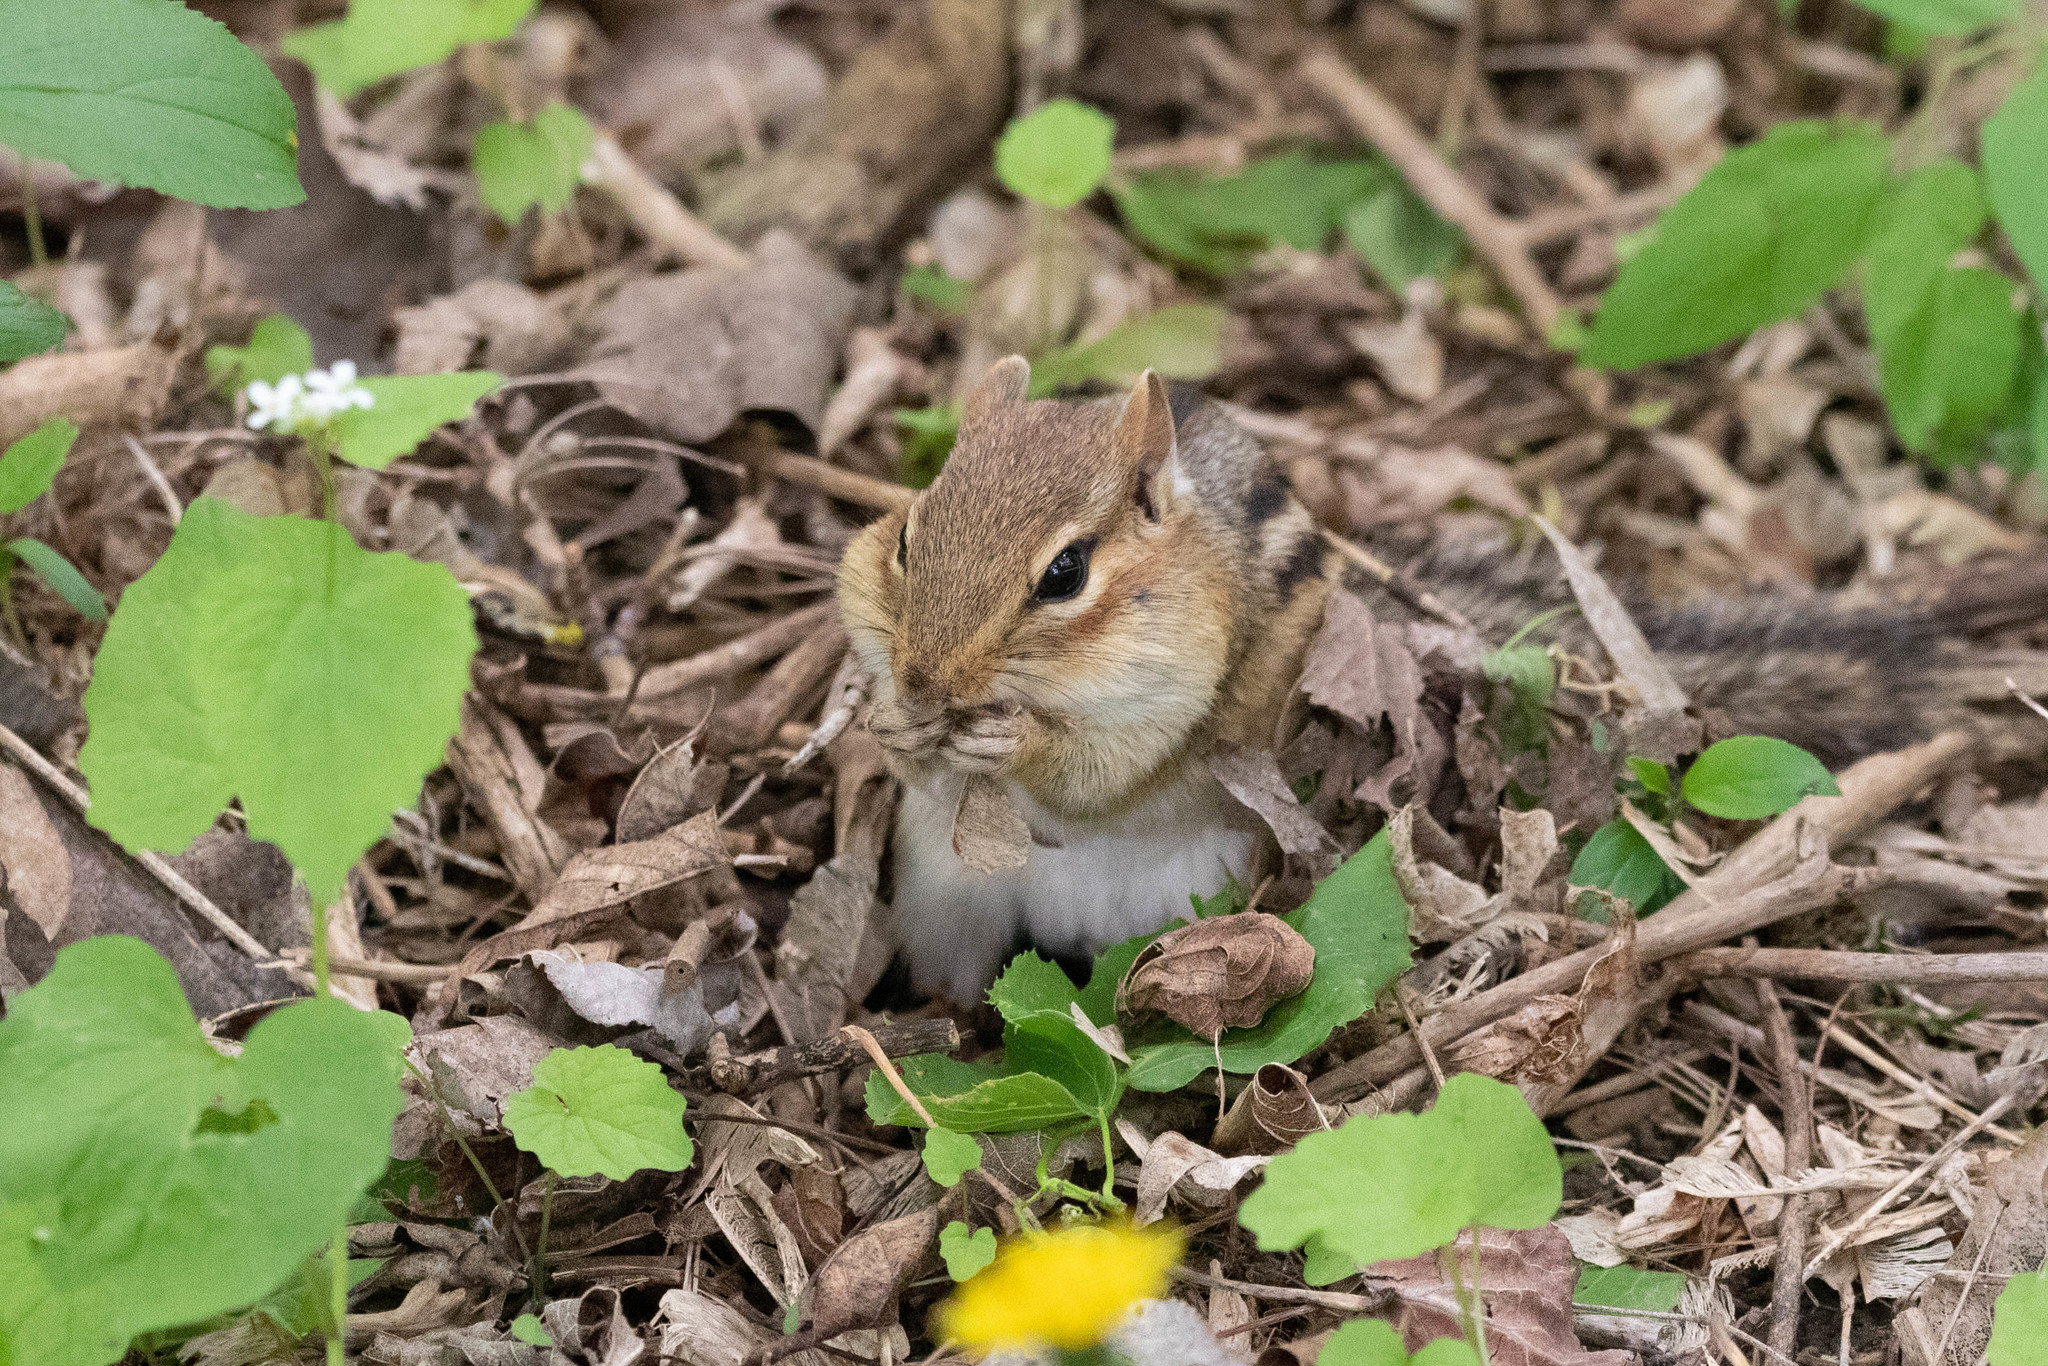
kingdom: Animalia
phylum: Chordata
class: Mammalia
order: Rodentia
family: Sciuridae
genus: Tamias
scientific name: Tamias striatus
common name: Eastern chipmunk
